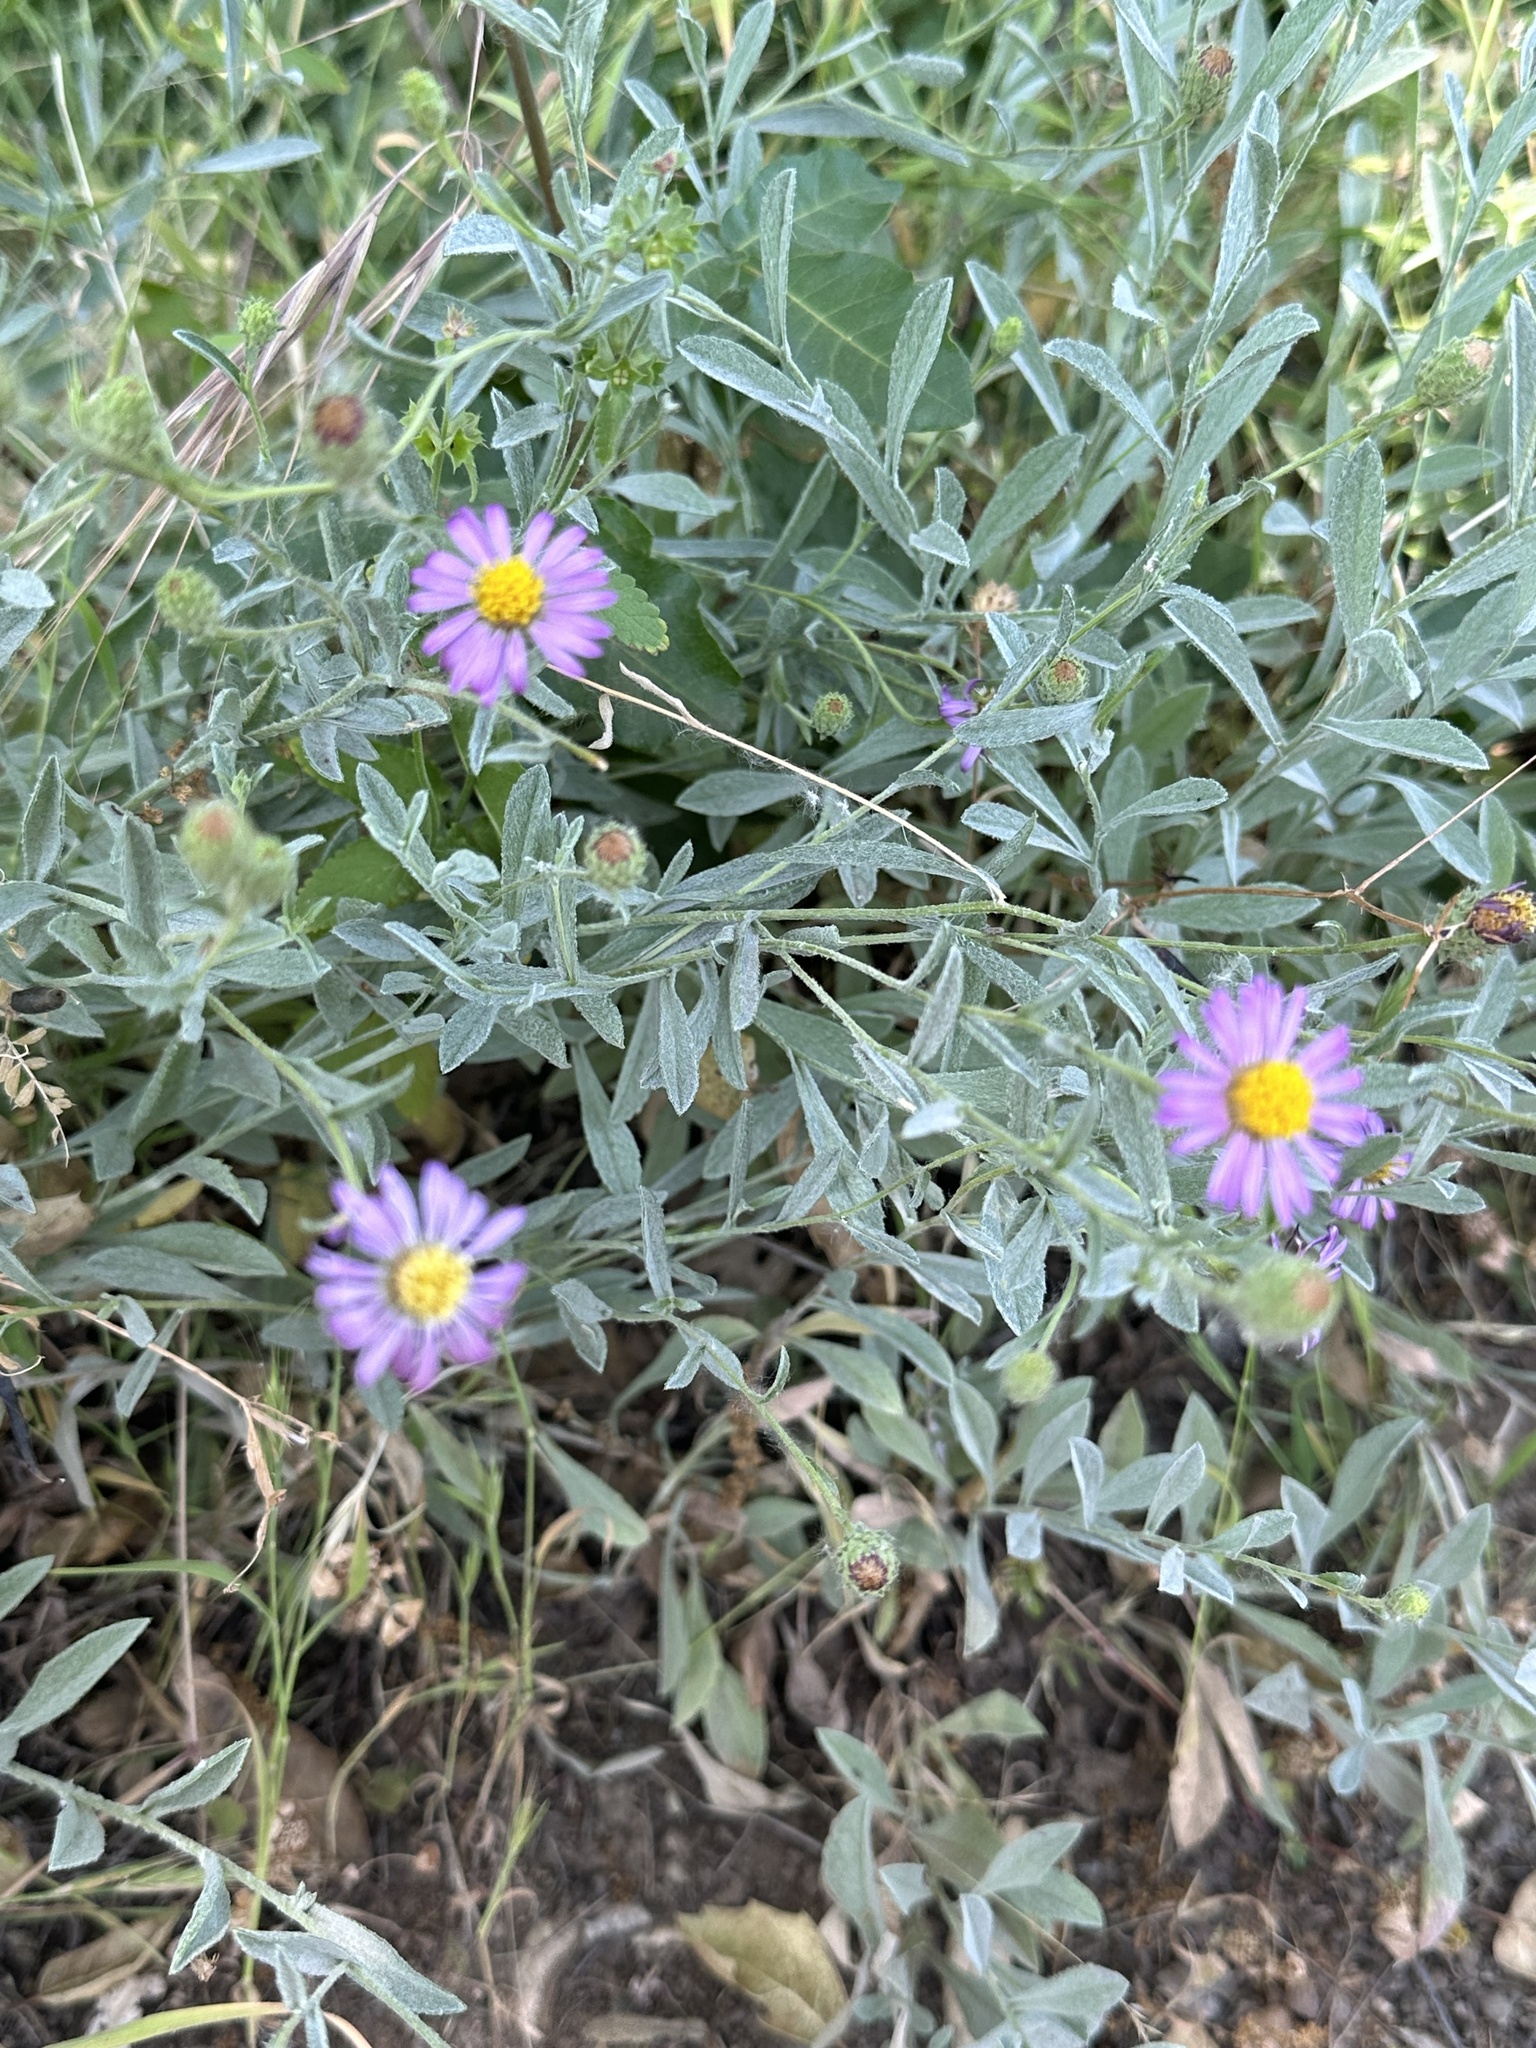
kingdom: Plantae
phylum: Tracheophyta
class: Magnoliopsida
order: Asterales
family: Asteraceae
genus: Corethrogyne
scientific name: Corethrogyne filaginifolia
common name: Sand-aster
